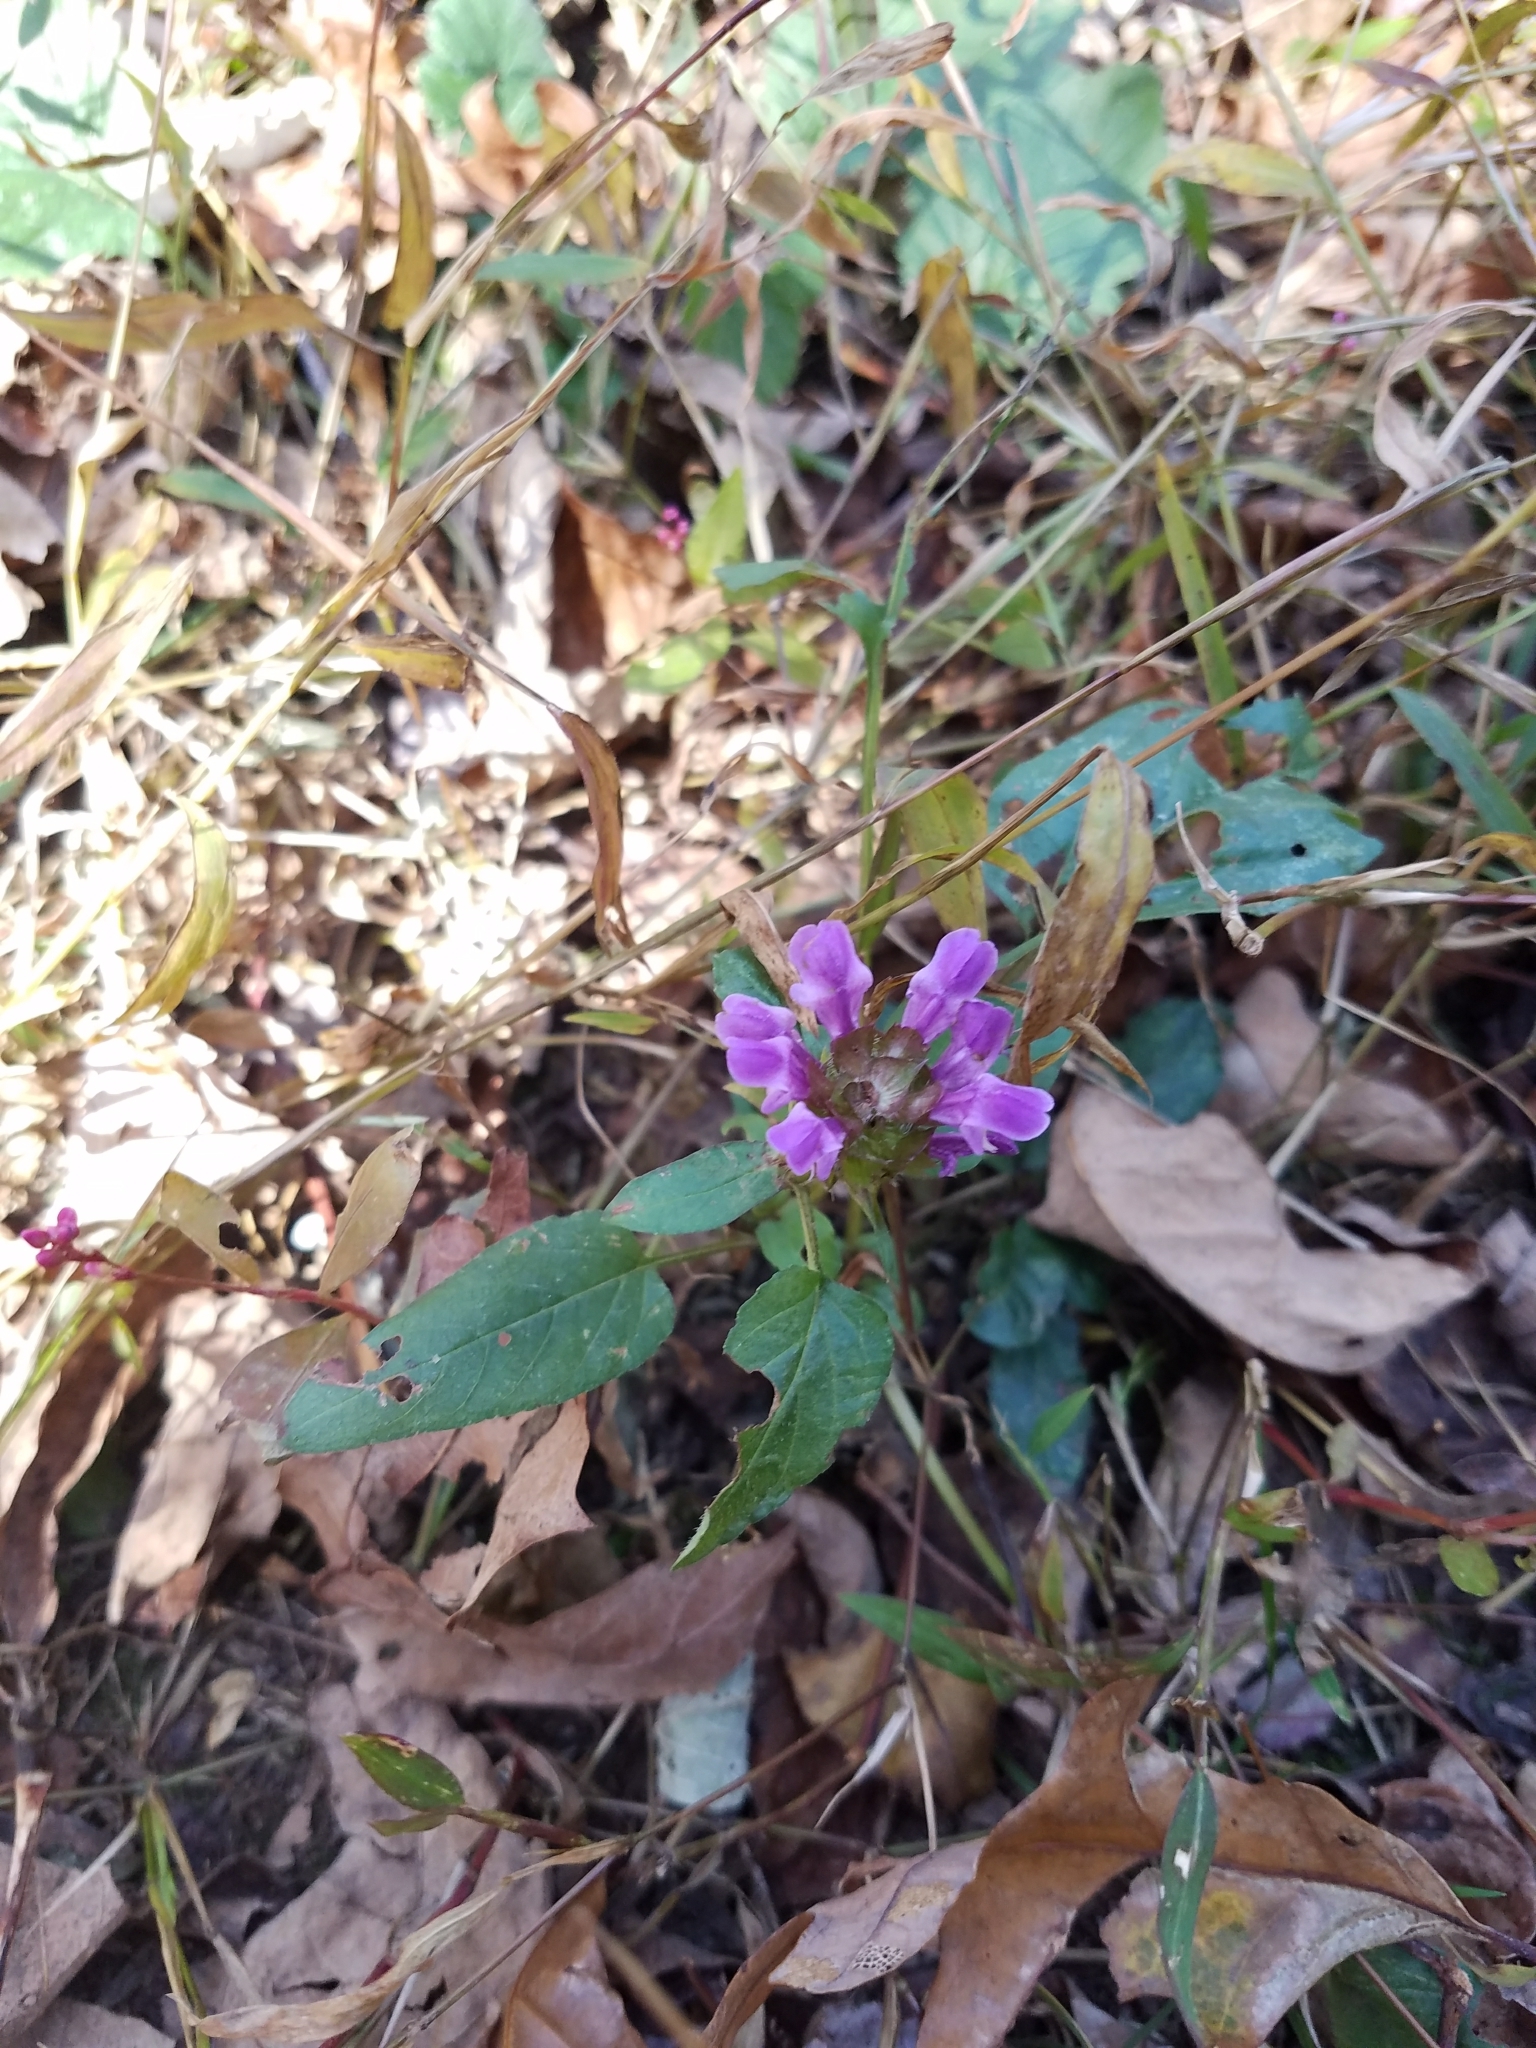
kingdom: Plantae
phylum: Tracheophyta
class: Magnoliopsida
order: Lamiales
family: Lamiaceae
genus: Prunella
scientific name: Prunella vulgaris
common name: Heal-all
